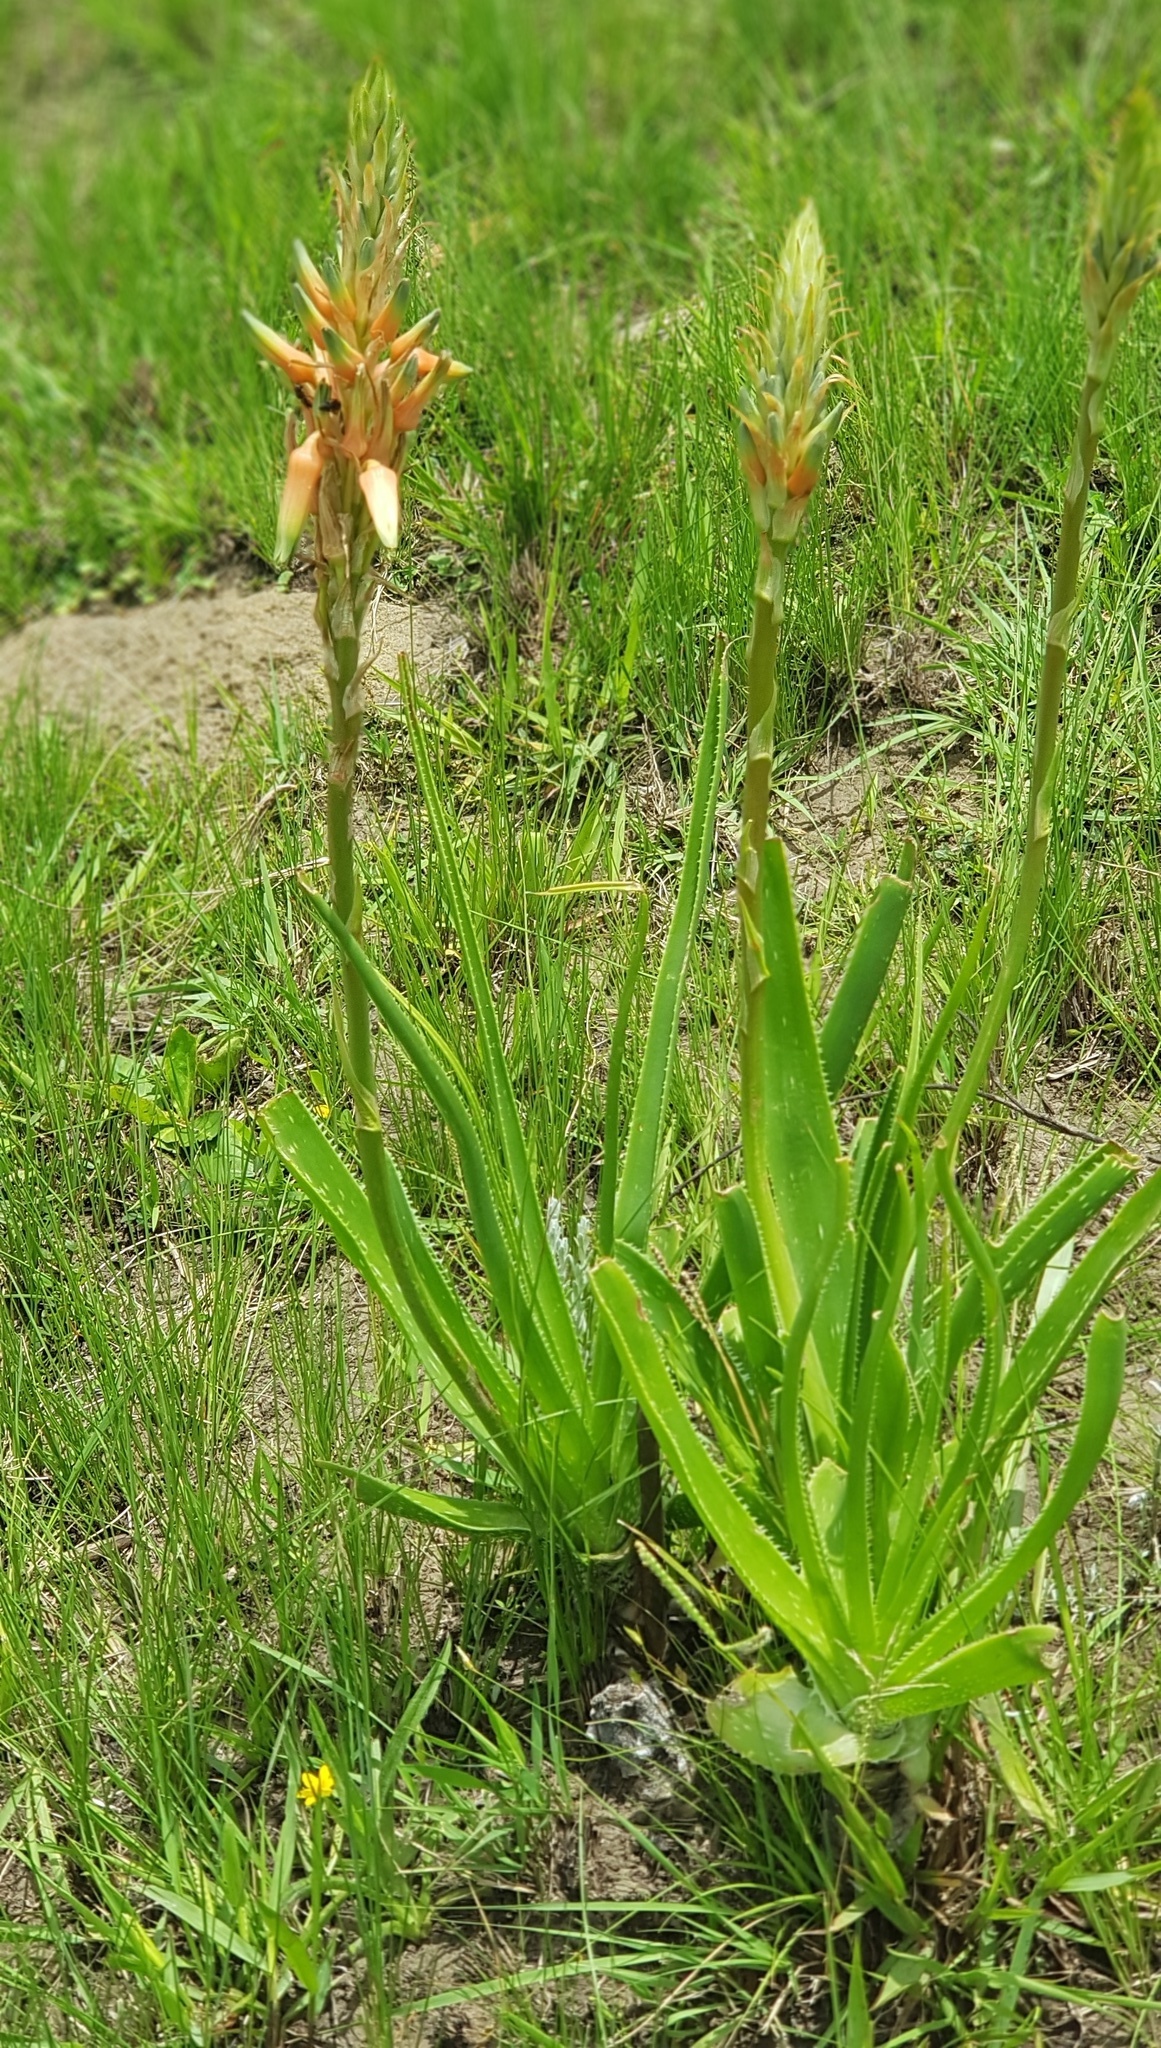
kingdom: Plantae
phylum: Tracheophyta
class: Liliopsida
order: Asparagales
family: Asphodelaceae
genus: Aloe
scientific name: Aloe cooperi
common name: Cooper's aloe
